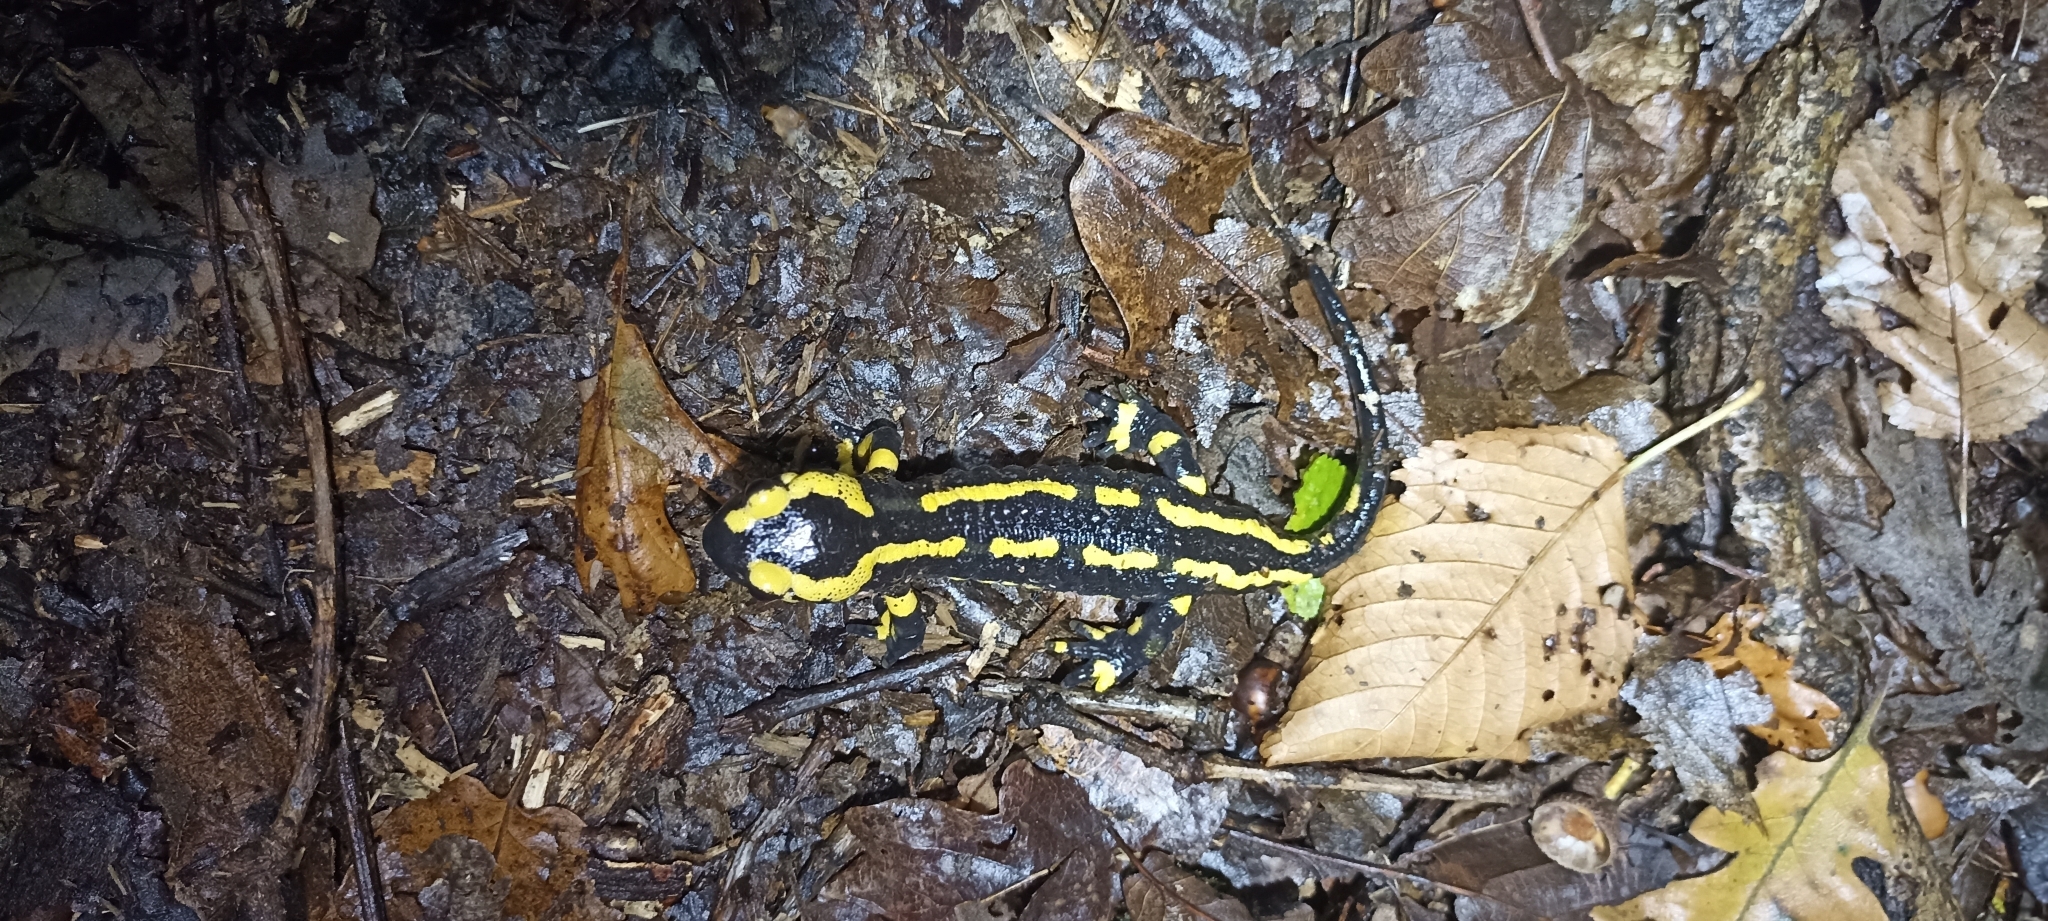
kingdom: Animalia
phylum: Chordata
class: Amphibia
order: Caudata
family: Salamandridae
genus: Salamandra
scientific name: Salamandra salamandra
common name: Fire salamander
